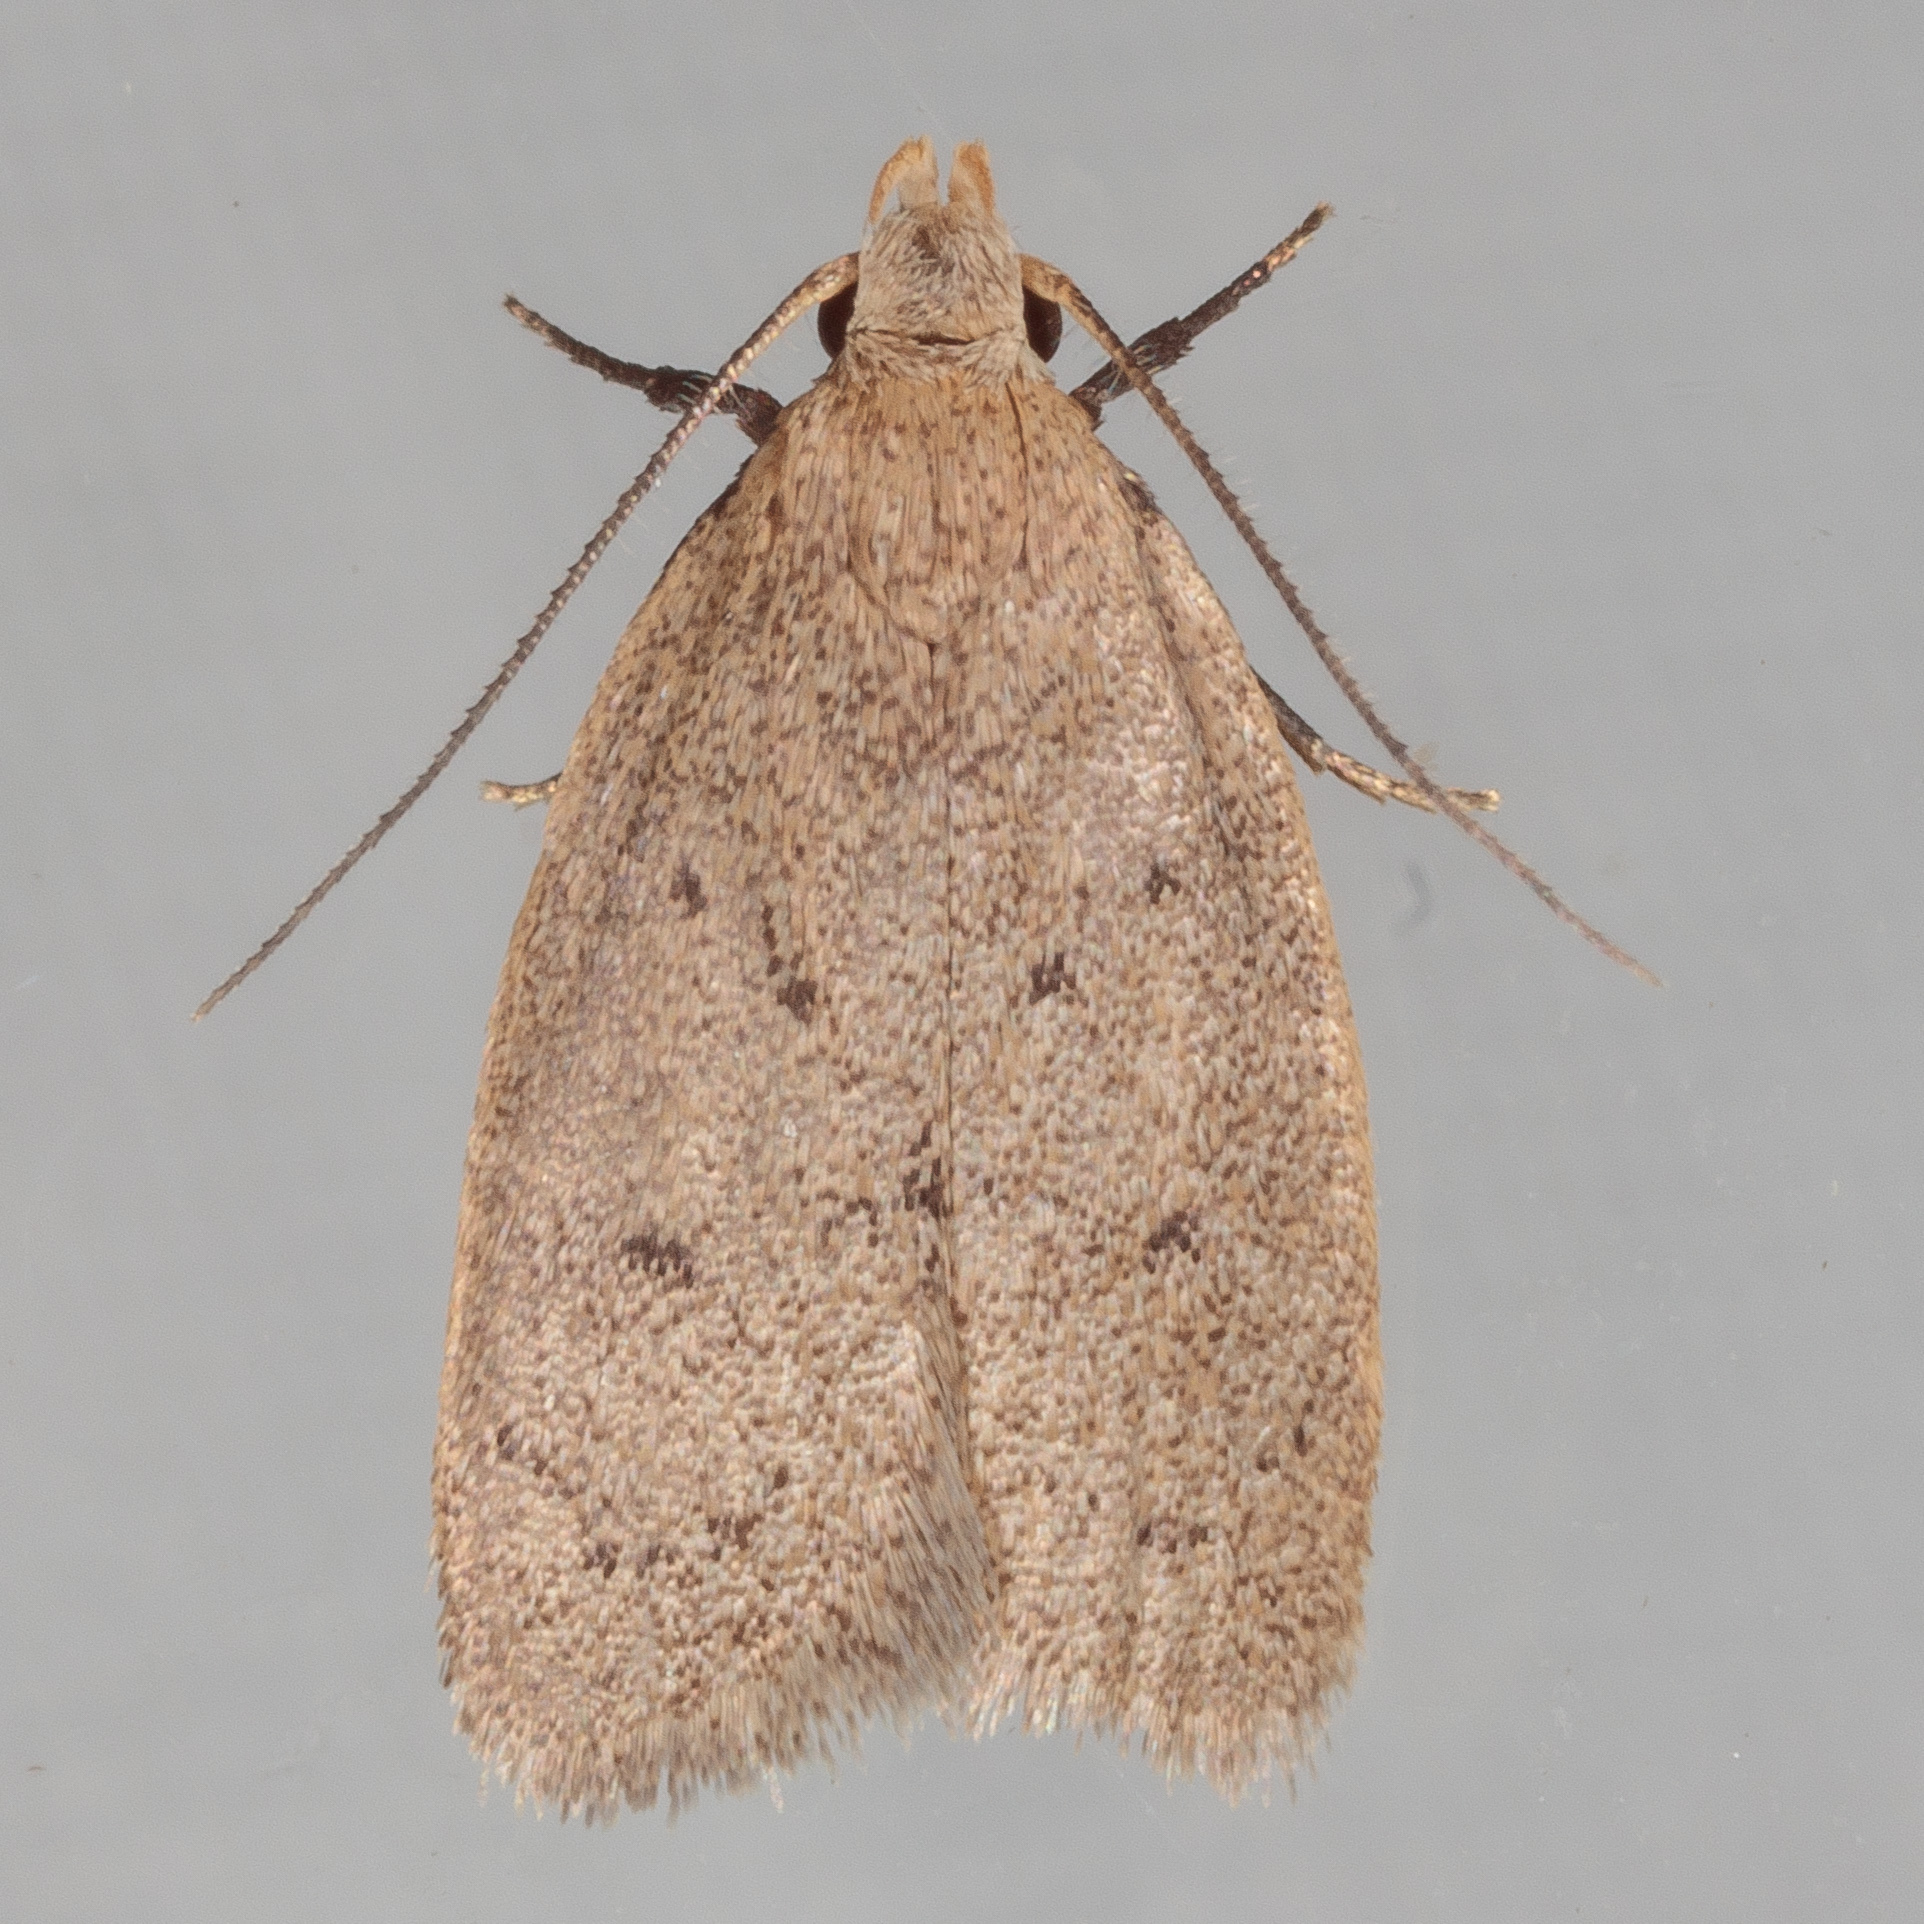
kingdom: Animalia
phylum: Arthropoda
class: Insecta
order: Lepidoptera
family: Oecophoridae
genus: Inga
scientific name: Inga obscuromaculella
